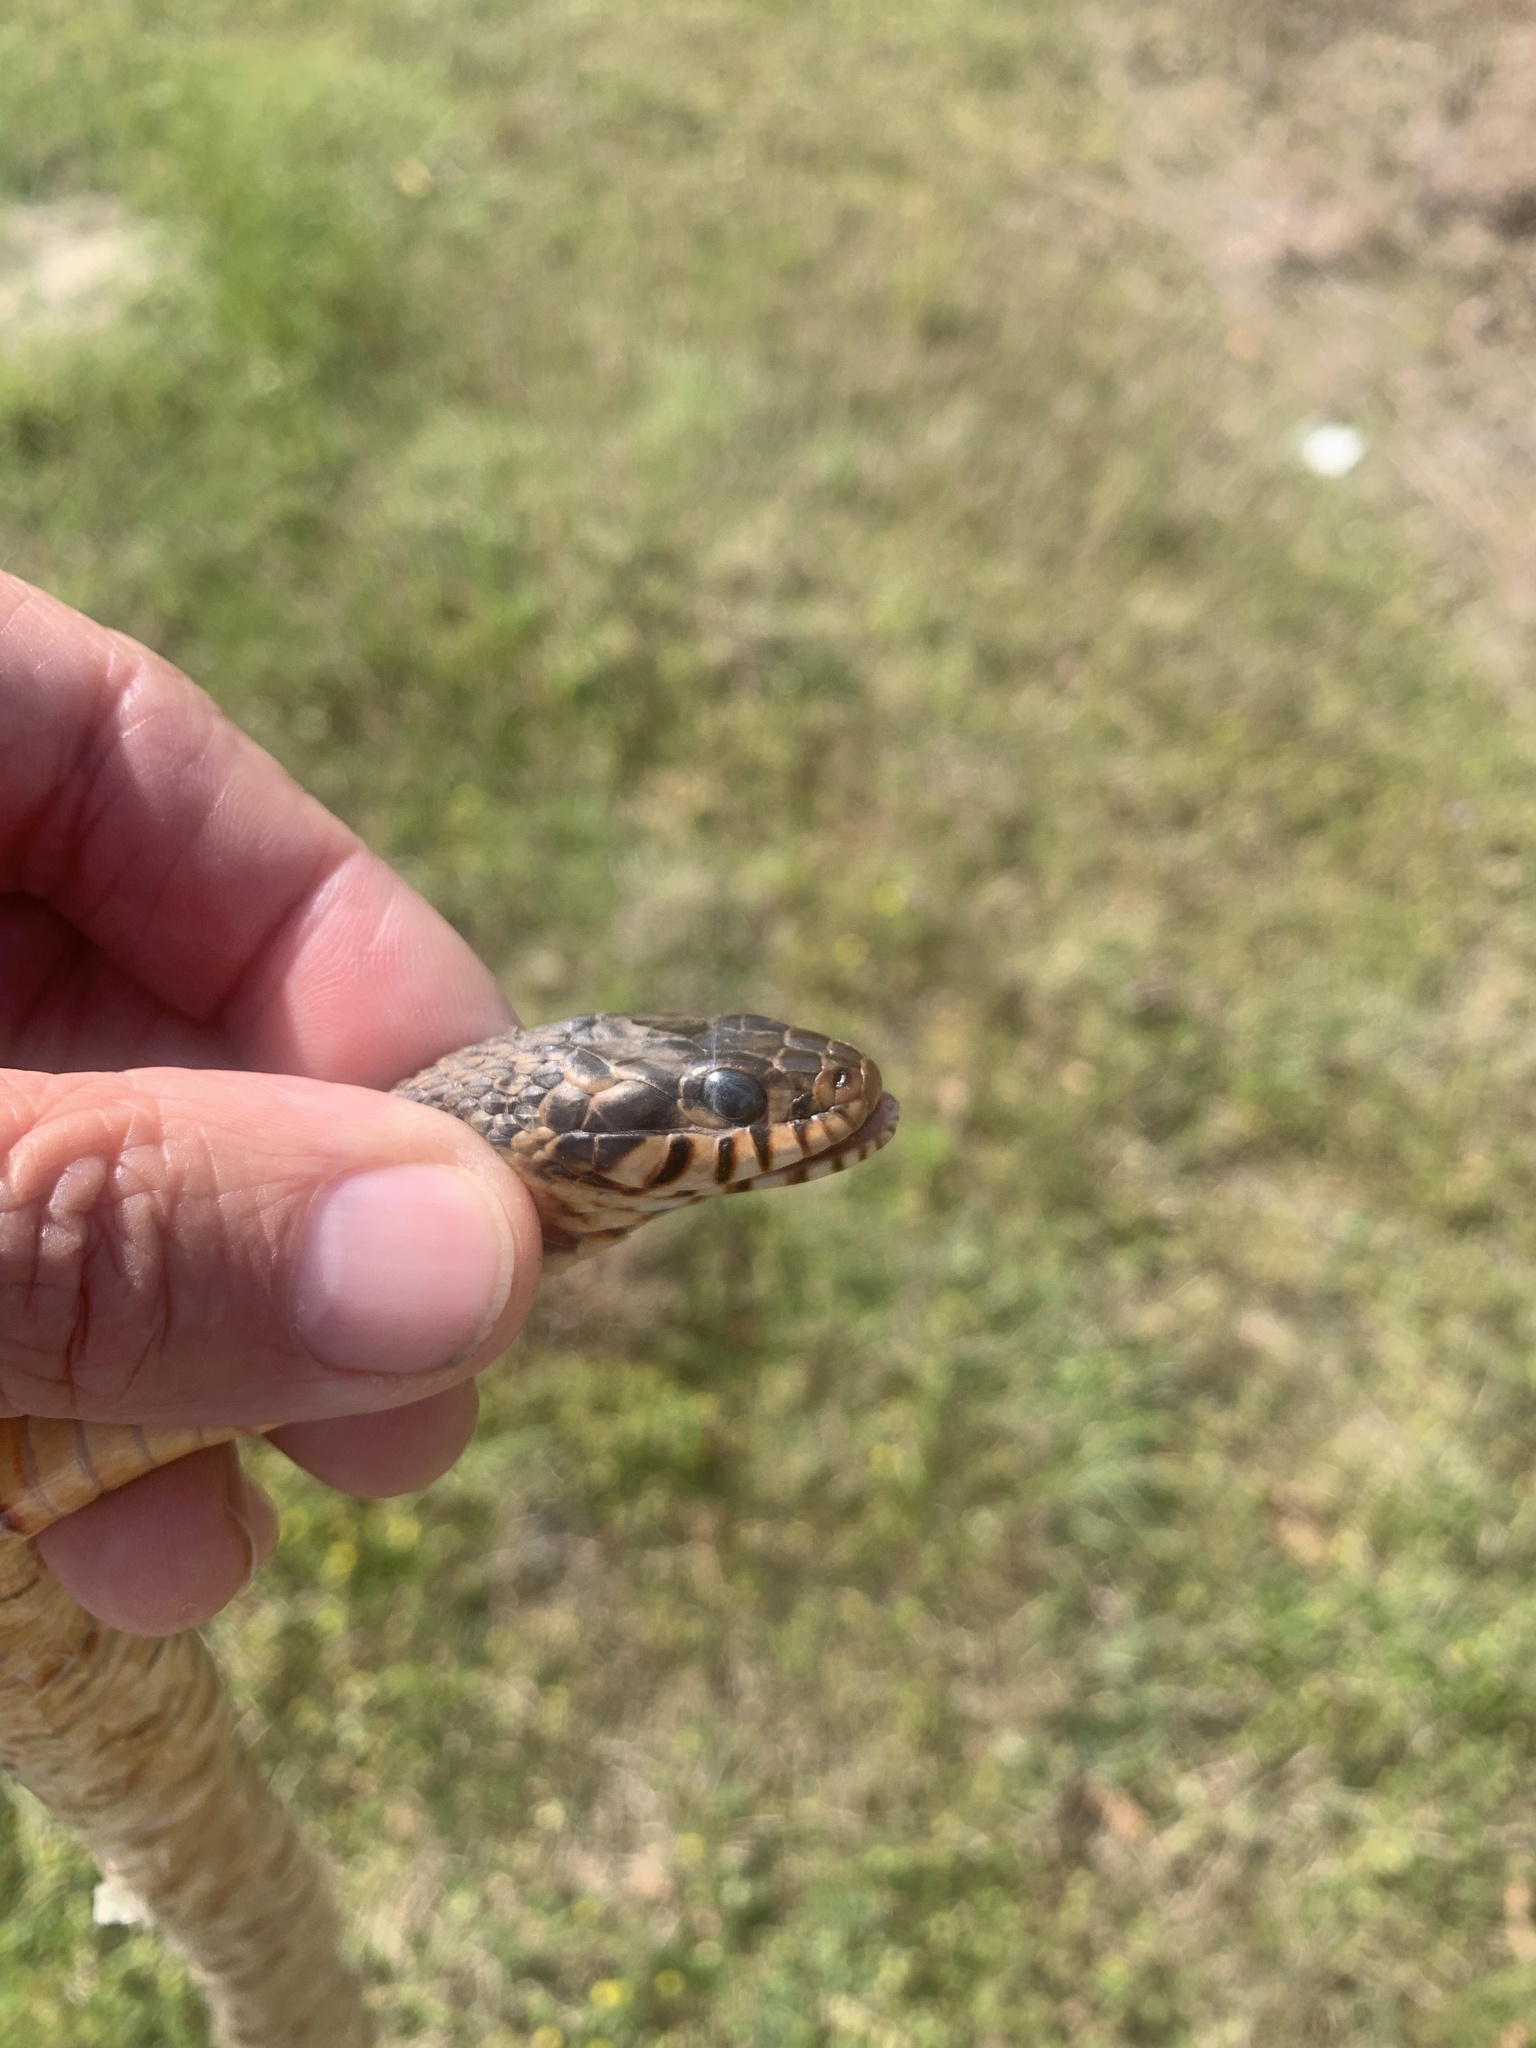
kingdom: Animalia
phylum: Chordata
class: Squamata
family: Colubridae
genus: Nerodia
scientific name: Nerodia fasciata
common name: Southern water snake
